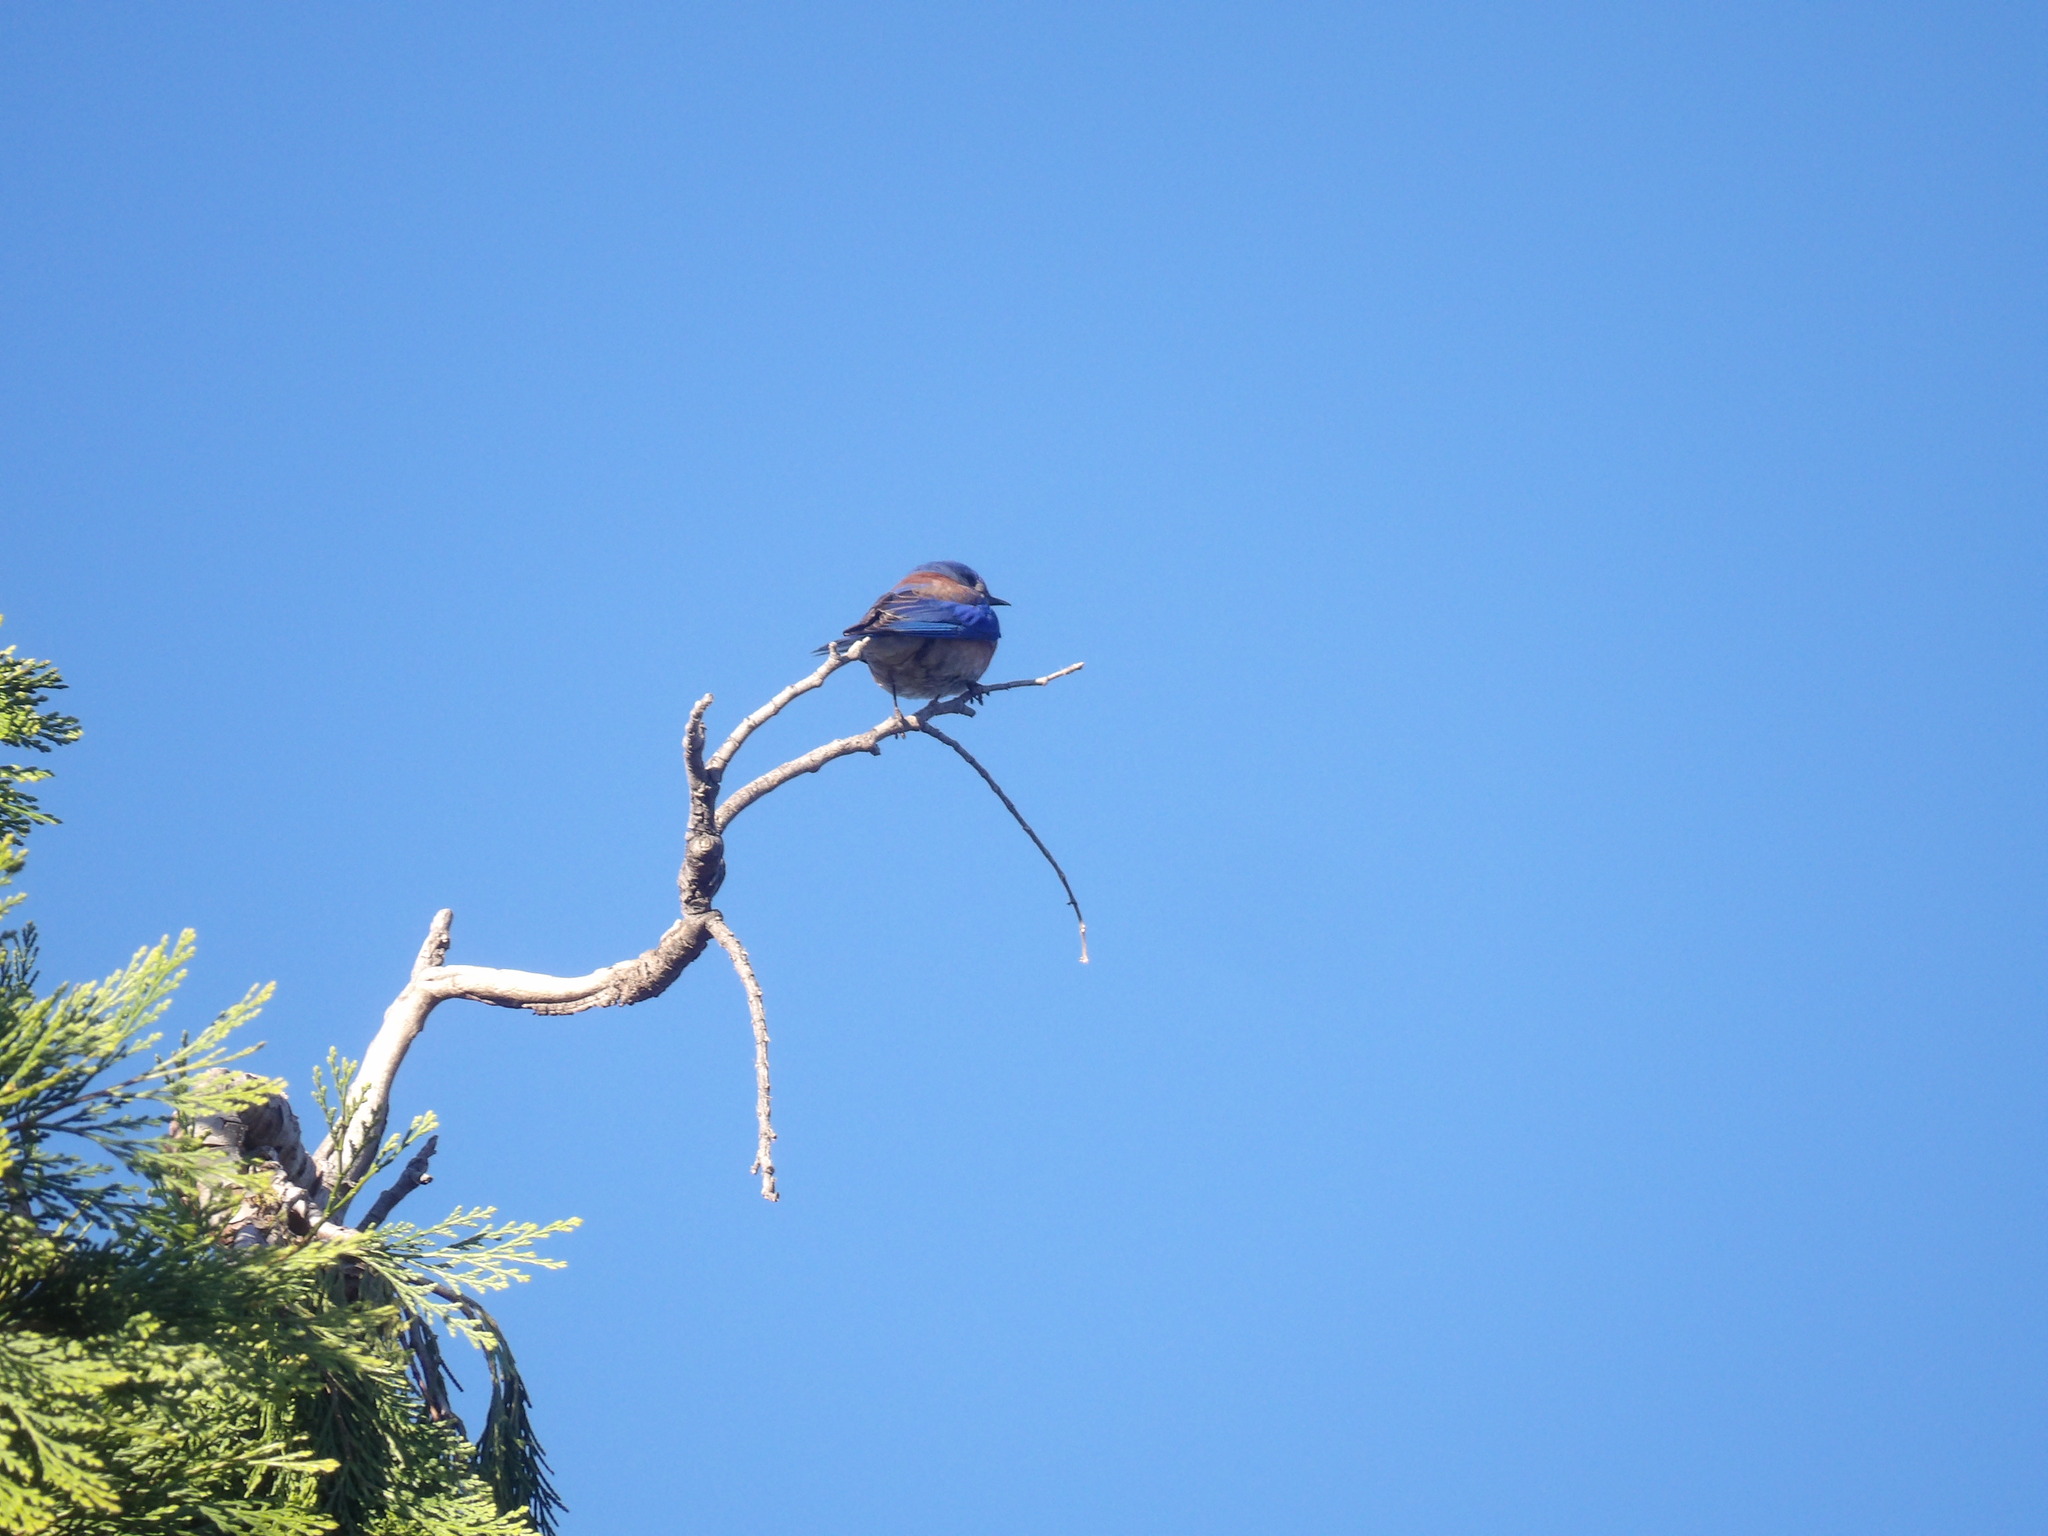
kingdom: Animalia
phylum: Chordata
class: Aves
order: Passeriformes
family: Turdidae
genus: Sialia
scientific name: Sialia mexicana
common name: Western bluebird
